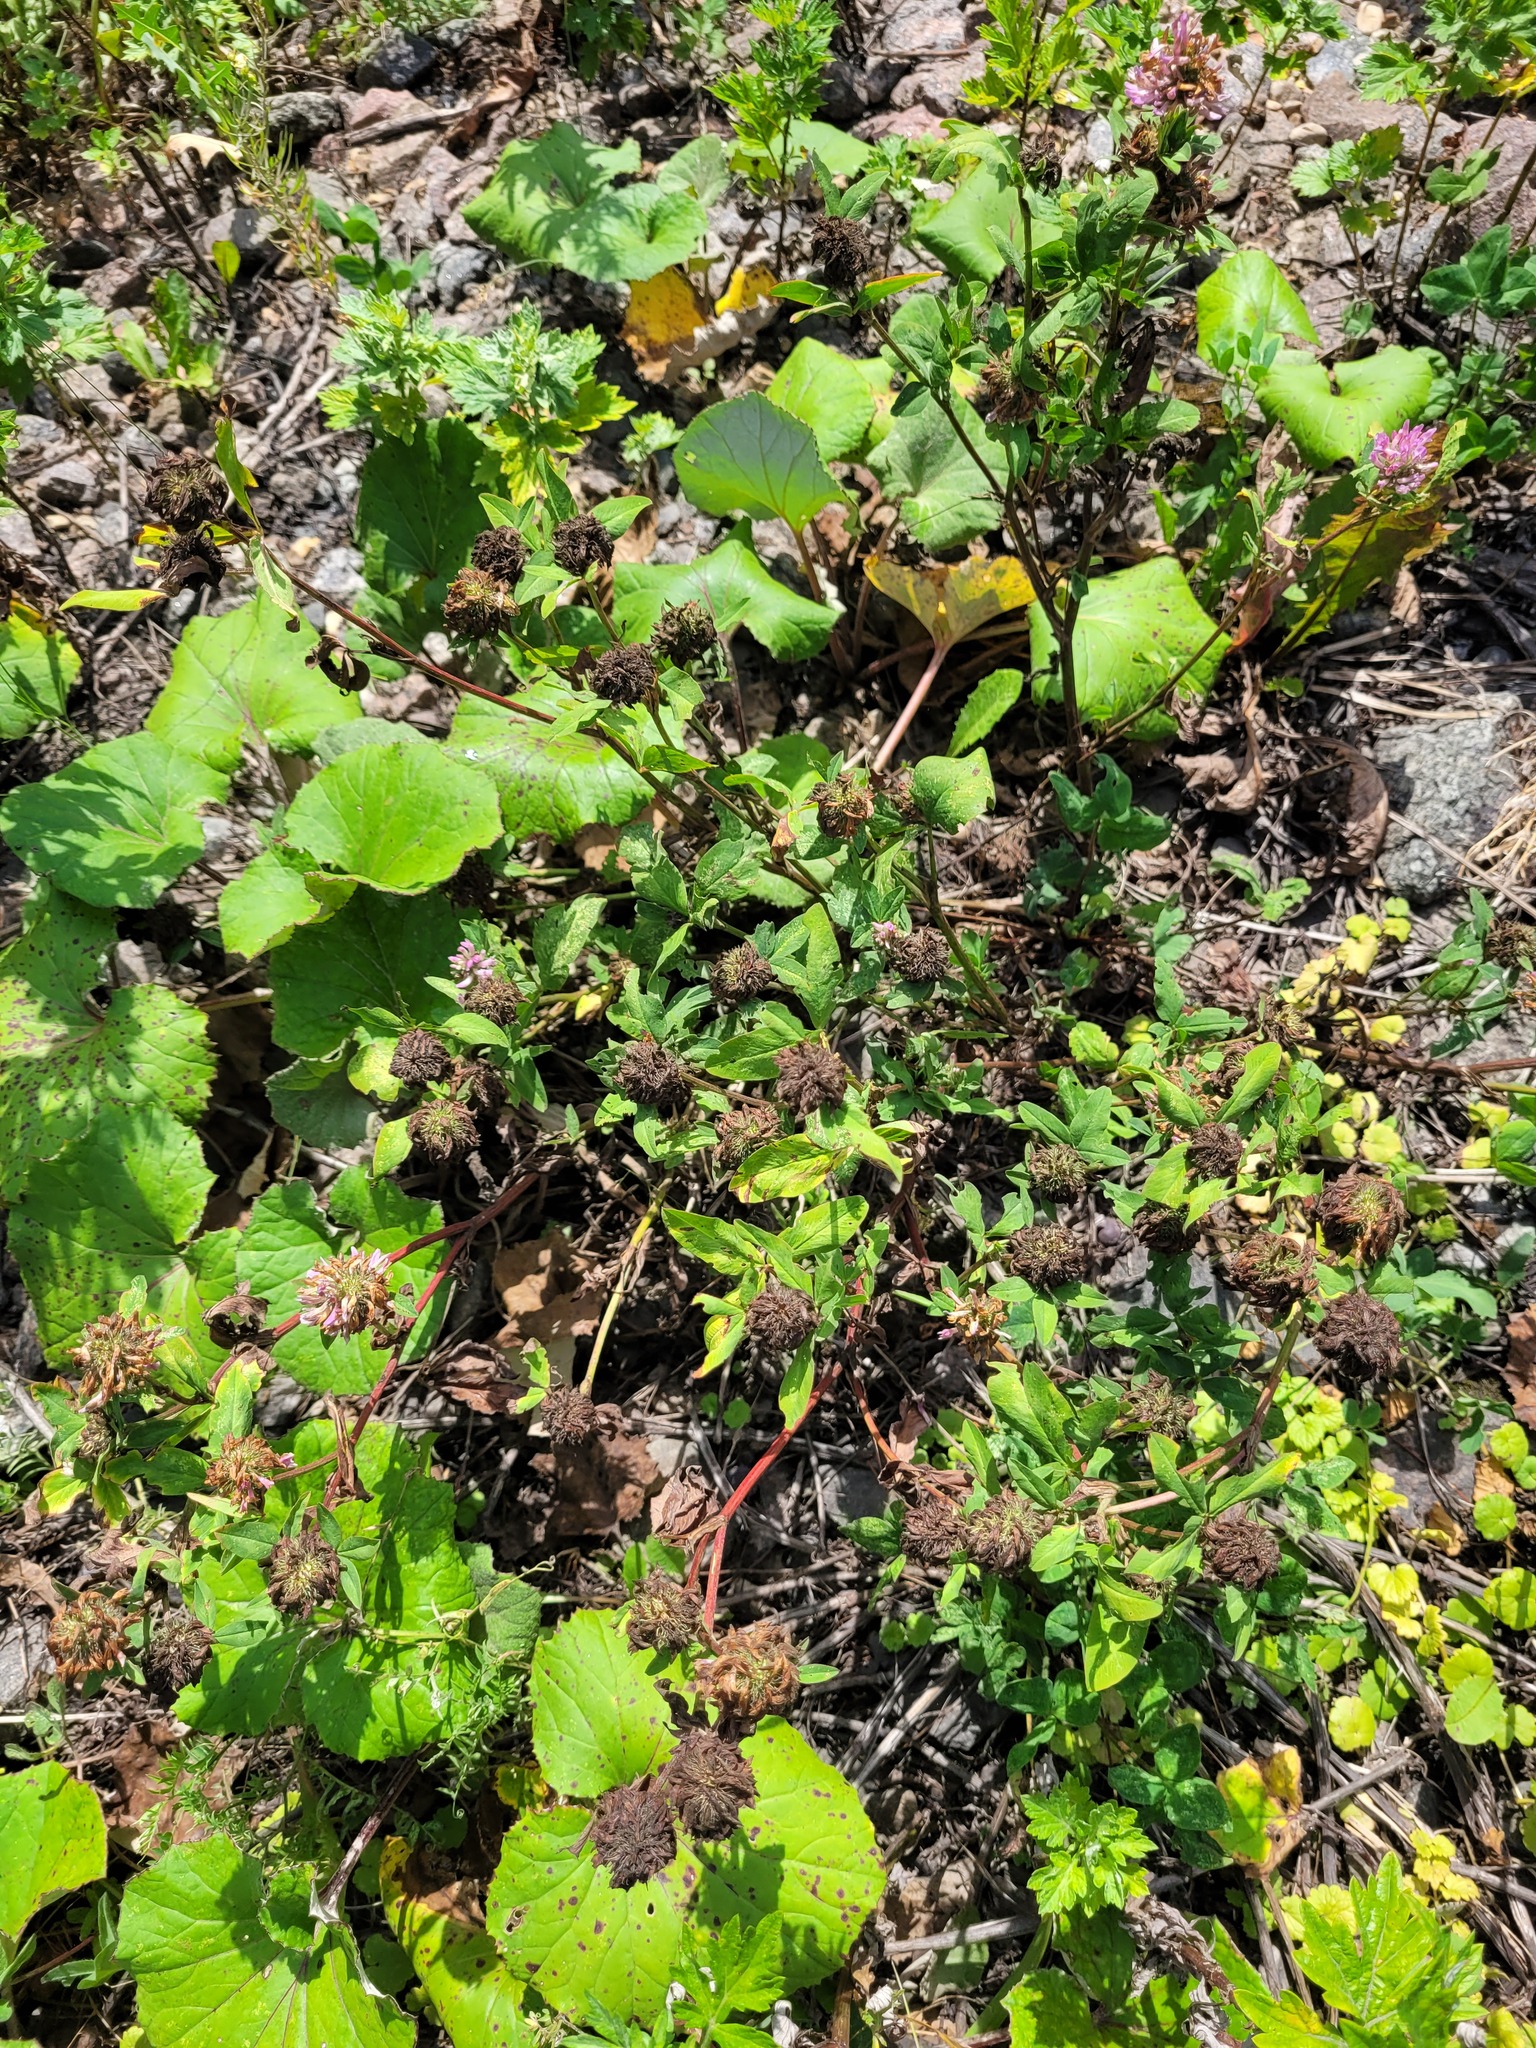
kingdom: Plantae
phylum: Tracheophyta
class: Magnoliopsida
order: Fabales
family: Fabaceae
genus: Trifolium
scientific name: Trifolium pratense
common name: Red clover
